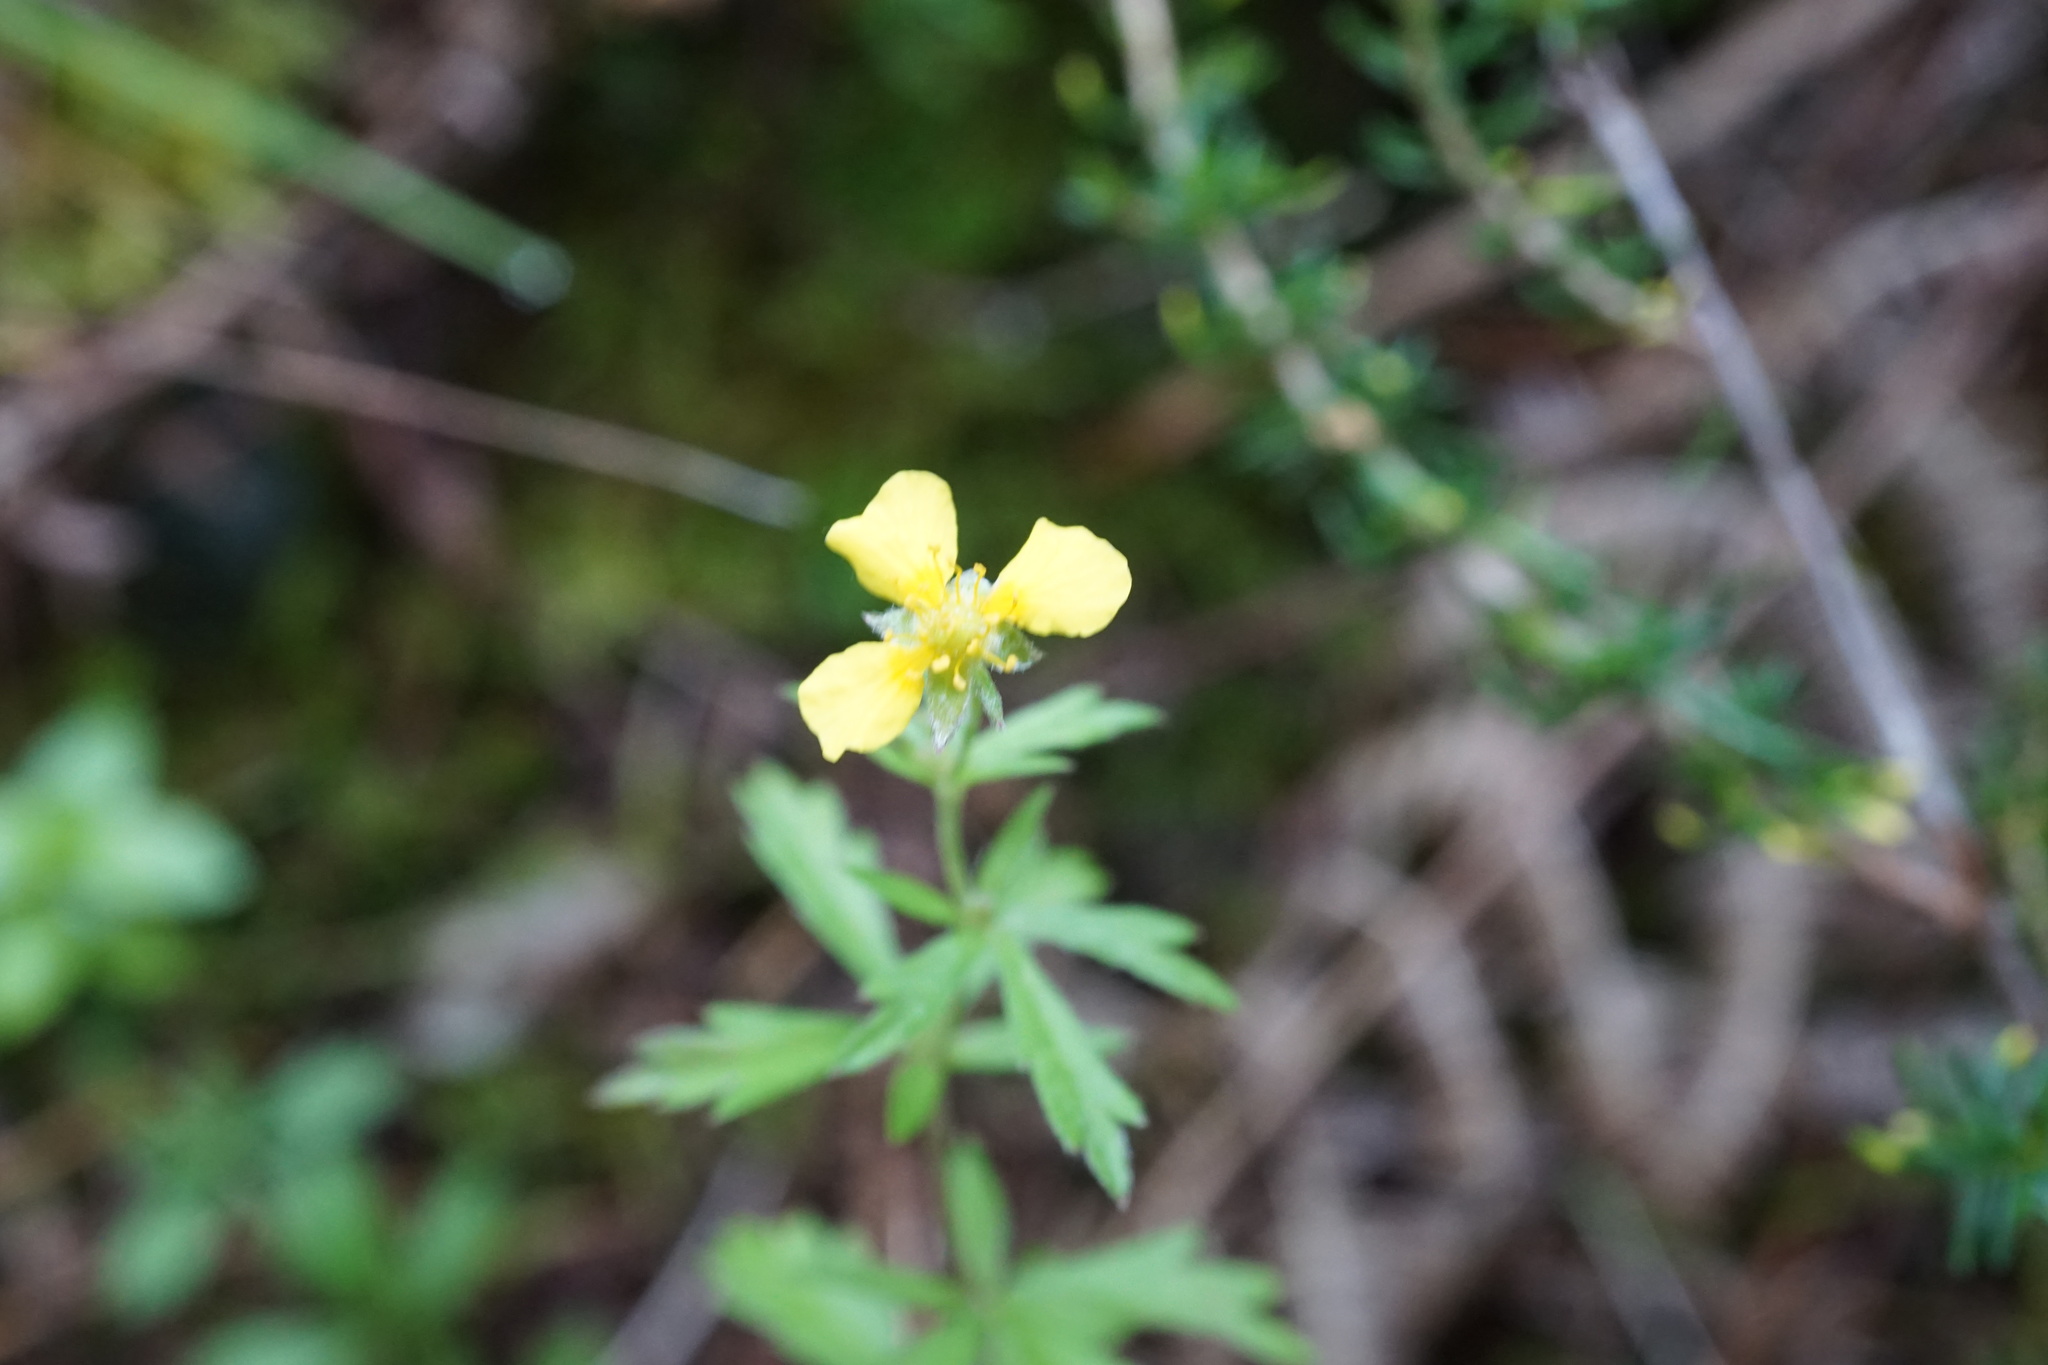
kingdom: Plantae
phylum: Tracheophyta
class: Magnoliopsida
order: Rosales
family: Rosaceae
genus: Potentilla
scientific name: Potentilla erecta
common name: Tormentil
